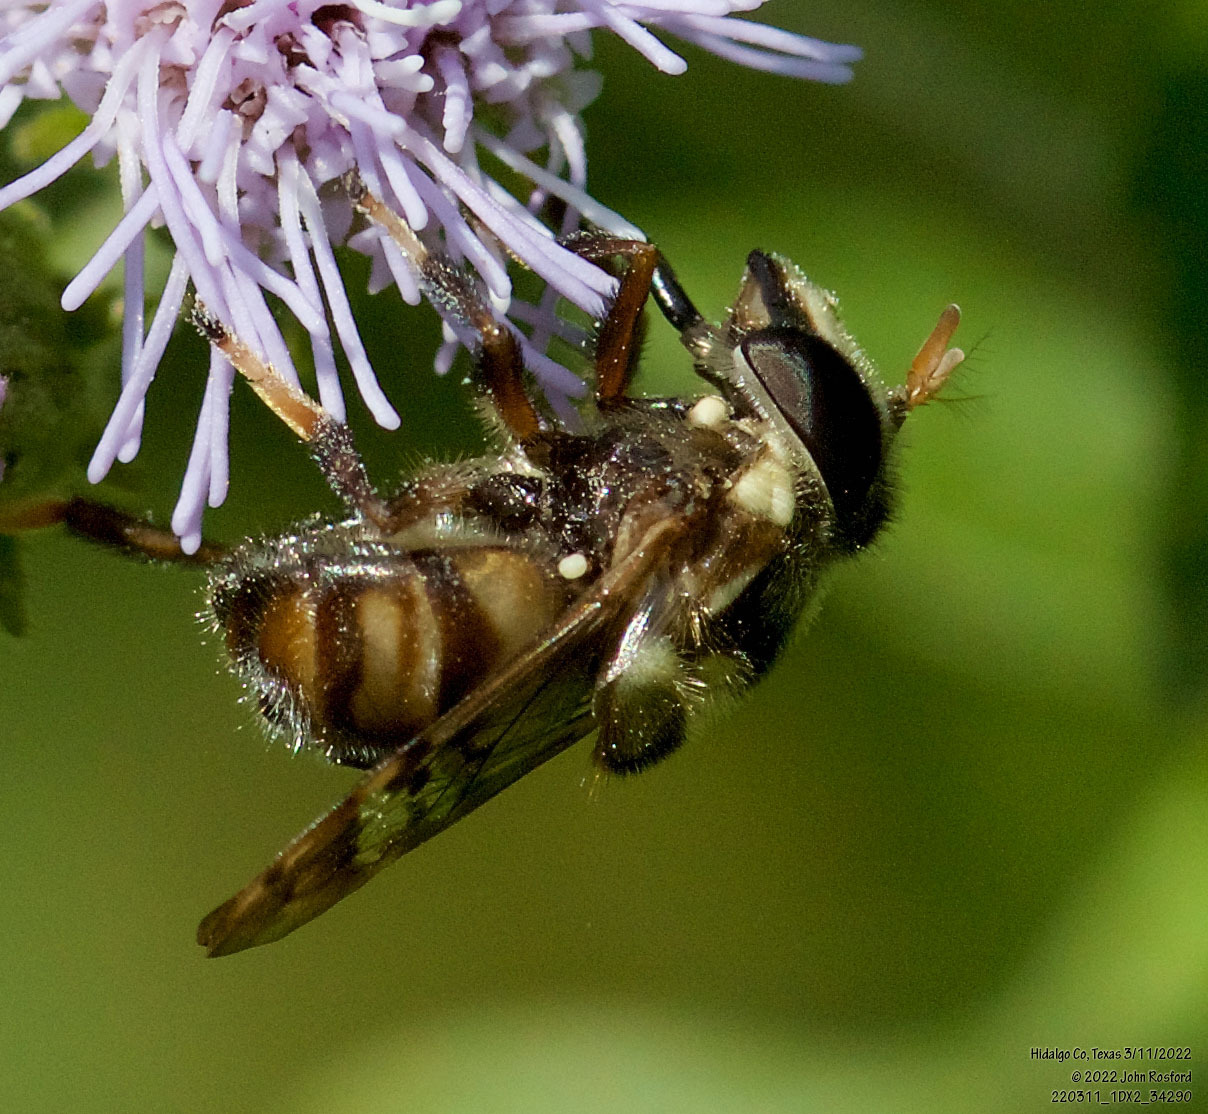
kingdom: Animalia
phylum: Arthropoda
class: Insecta
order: Diptera
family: Syrphidae
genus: Copestylum
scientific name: Copestylum tamaulipanum
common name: Syrphid fly
